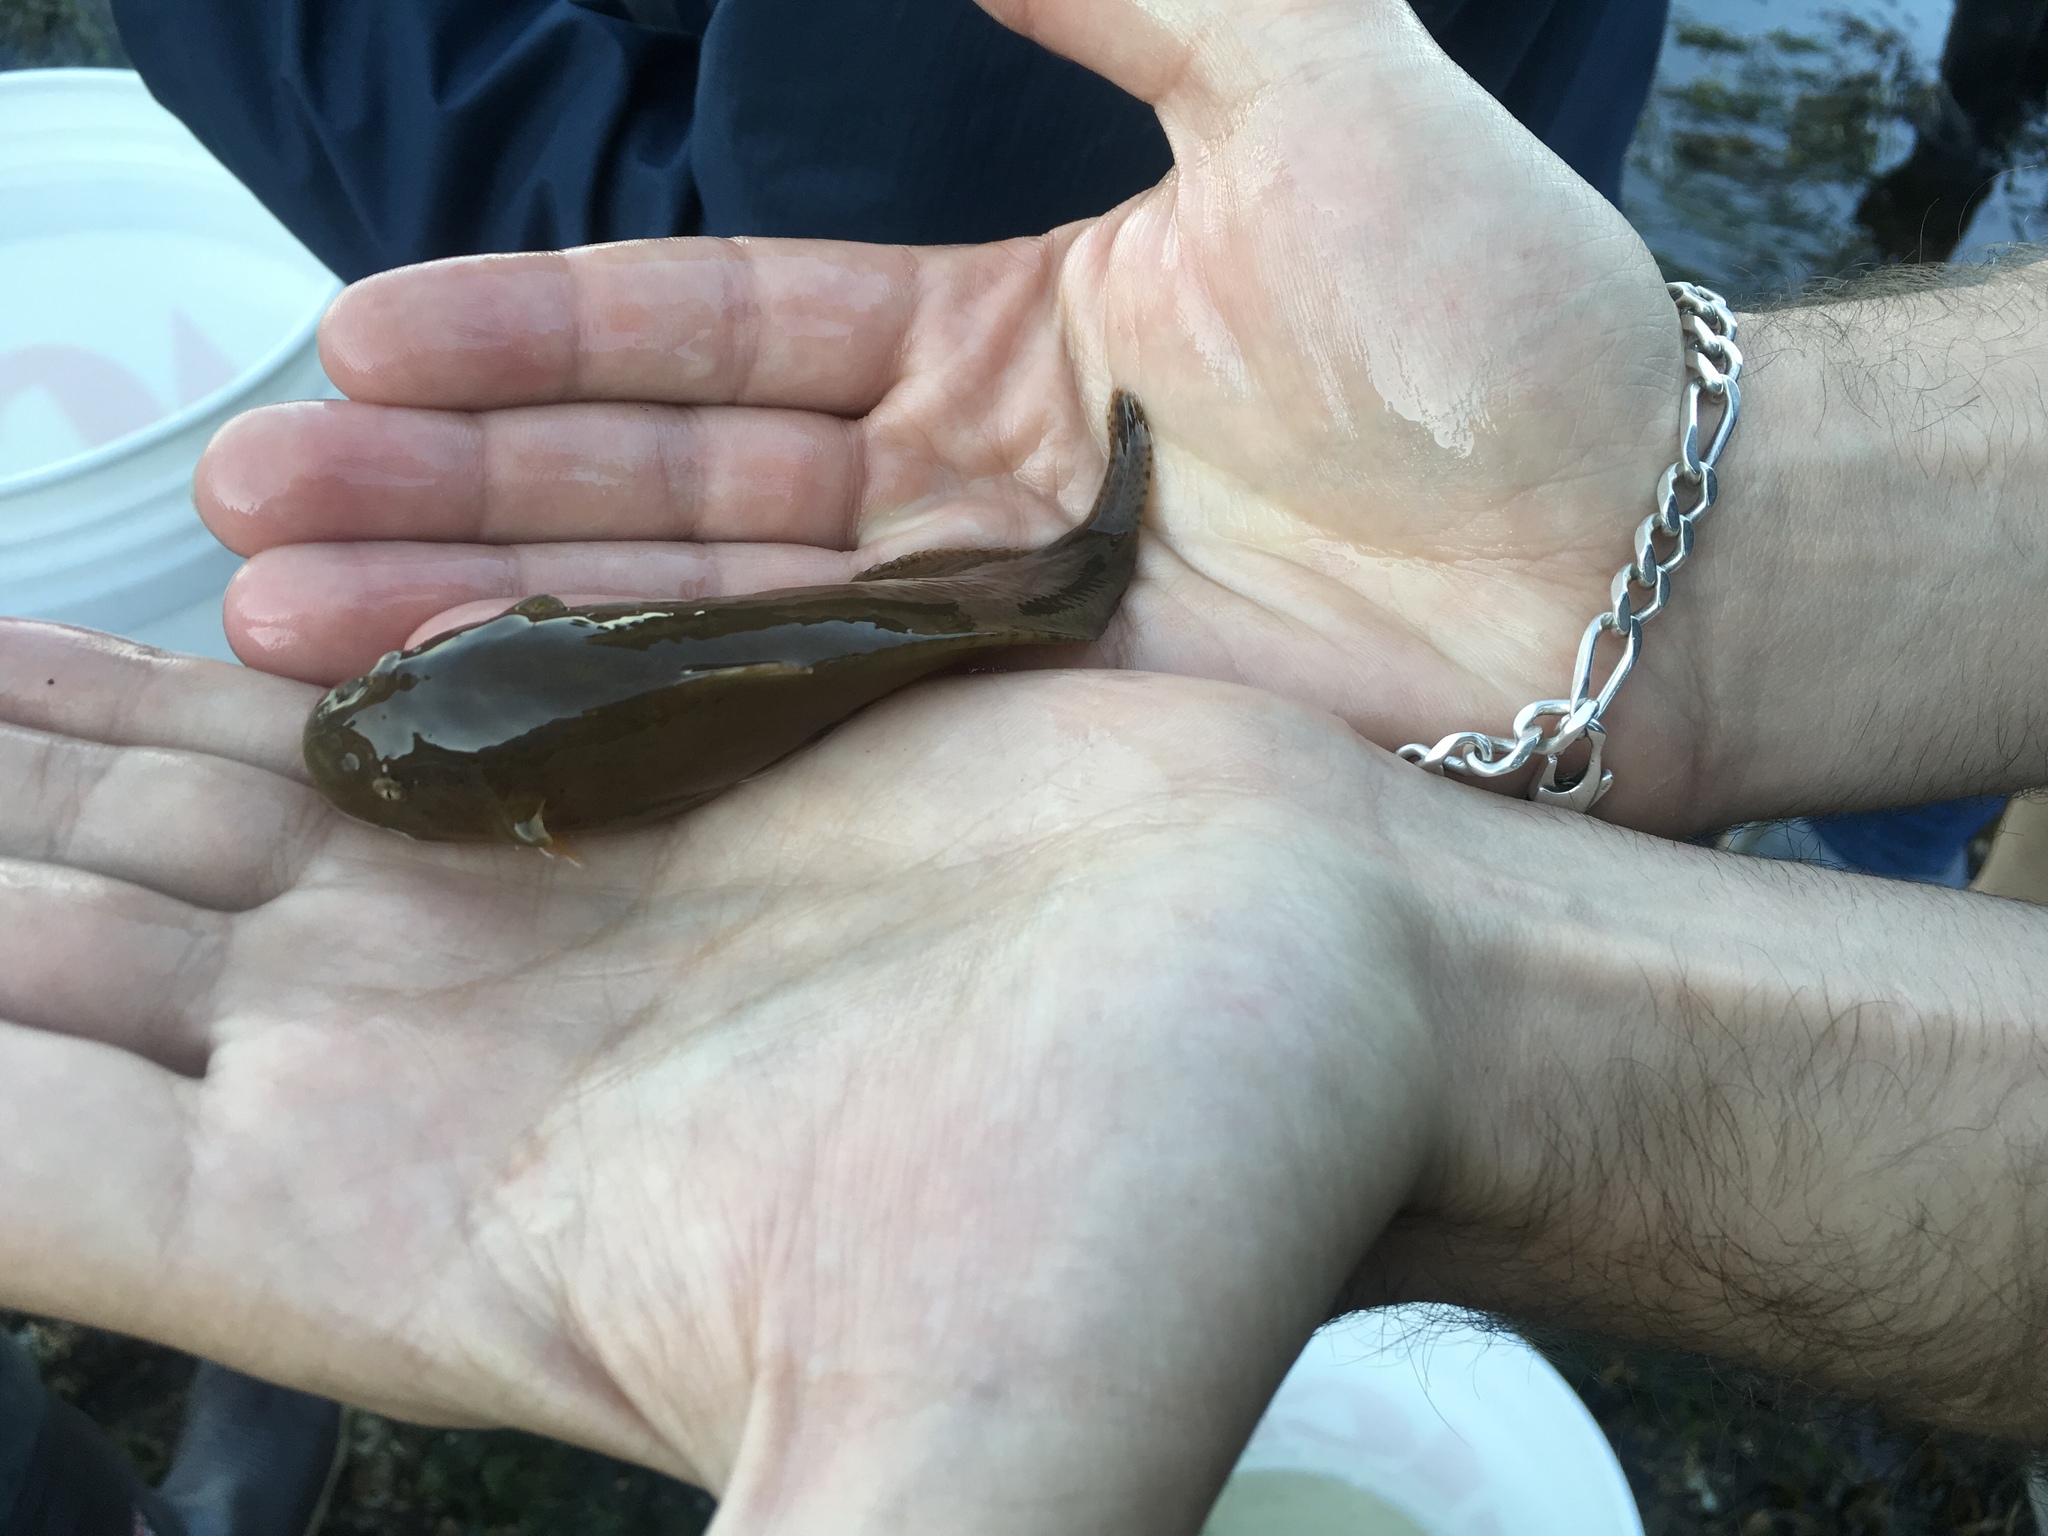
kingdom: Animalia
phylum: Chordata
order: Scorpaeniformes
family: Liparidae
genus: Liparis
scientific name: Liparis florae
